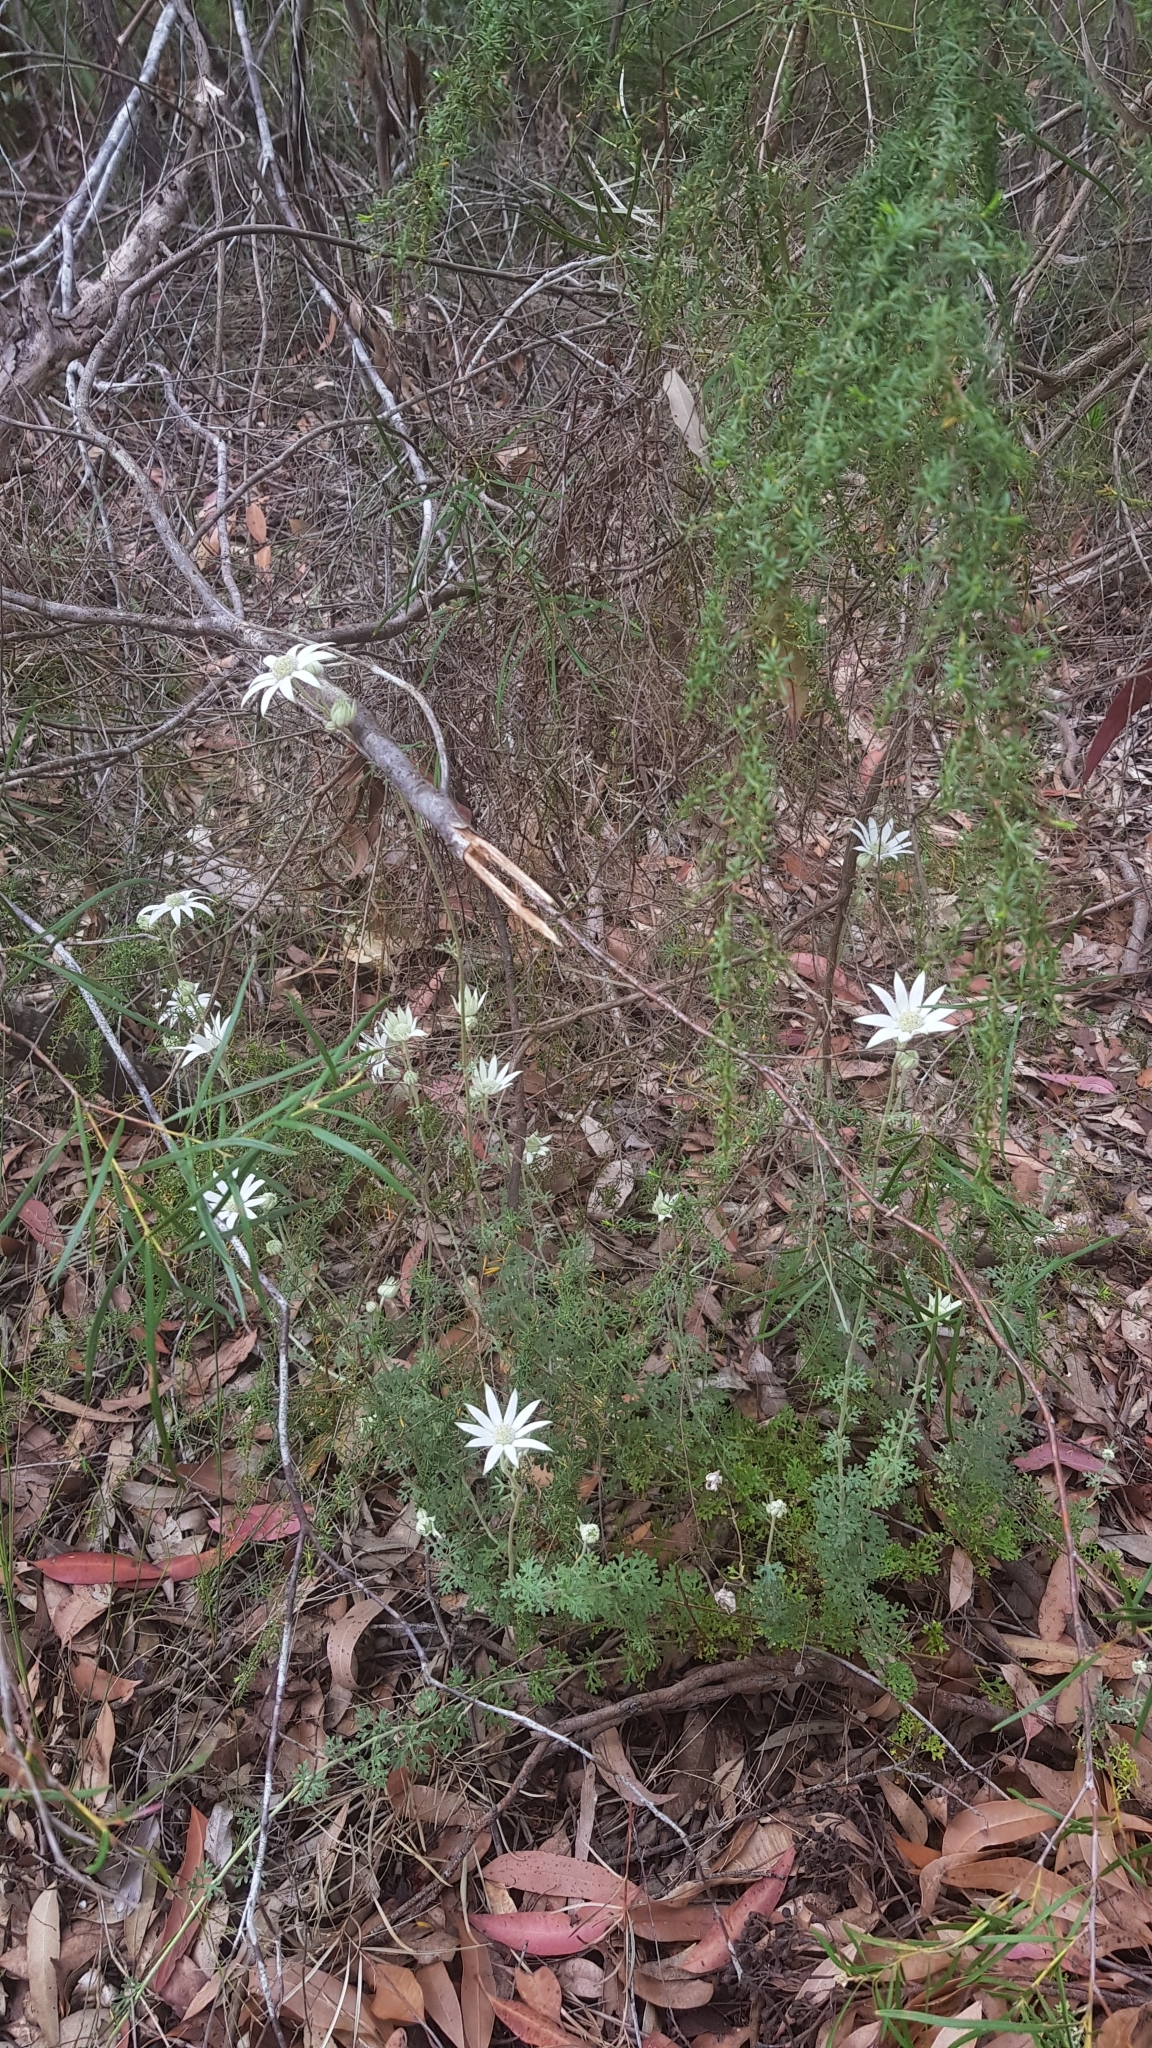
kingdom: Plantae
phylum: Tracheophyta
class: Magnoliopsida
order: Apiales
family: Apiaceae
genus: Actinotus
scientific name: Actinotus helianthi
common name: Flannel-flower
